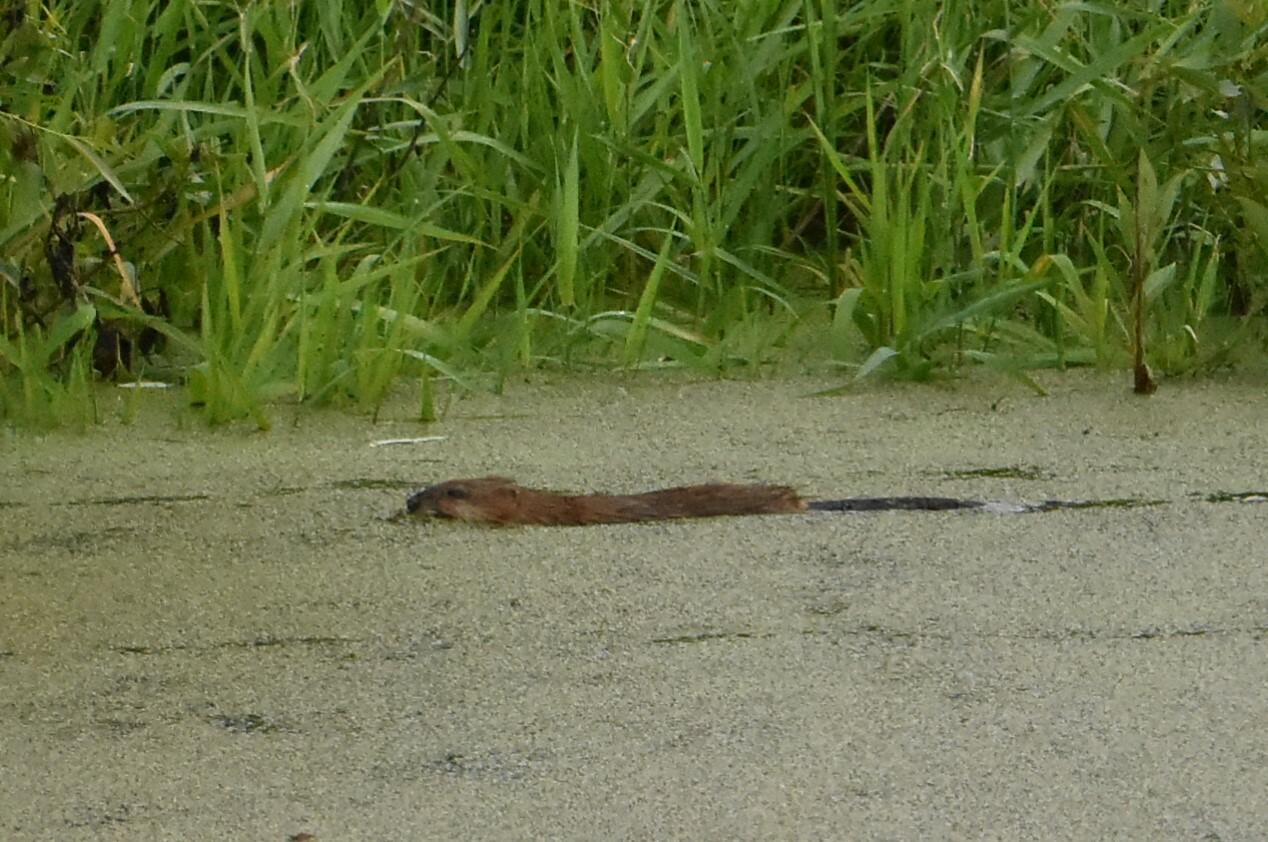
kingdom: Animalia
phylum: Chordata
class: Mammalia
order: Rodentia
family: Cricetidae
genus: Ondatra
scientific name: Ondatra zibethicus
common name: Muskrat
